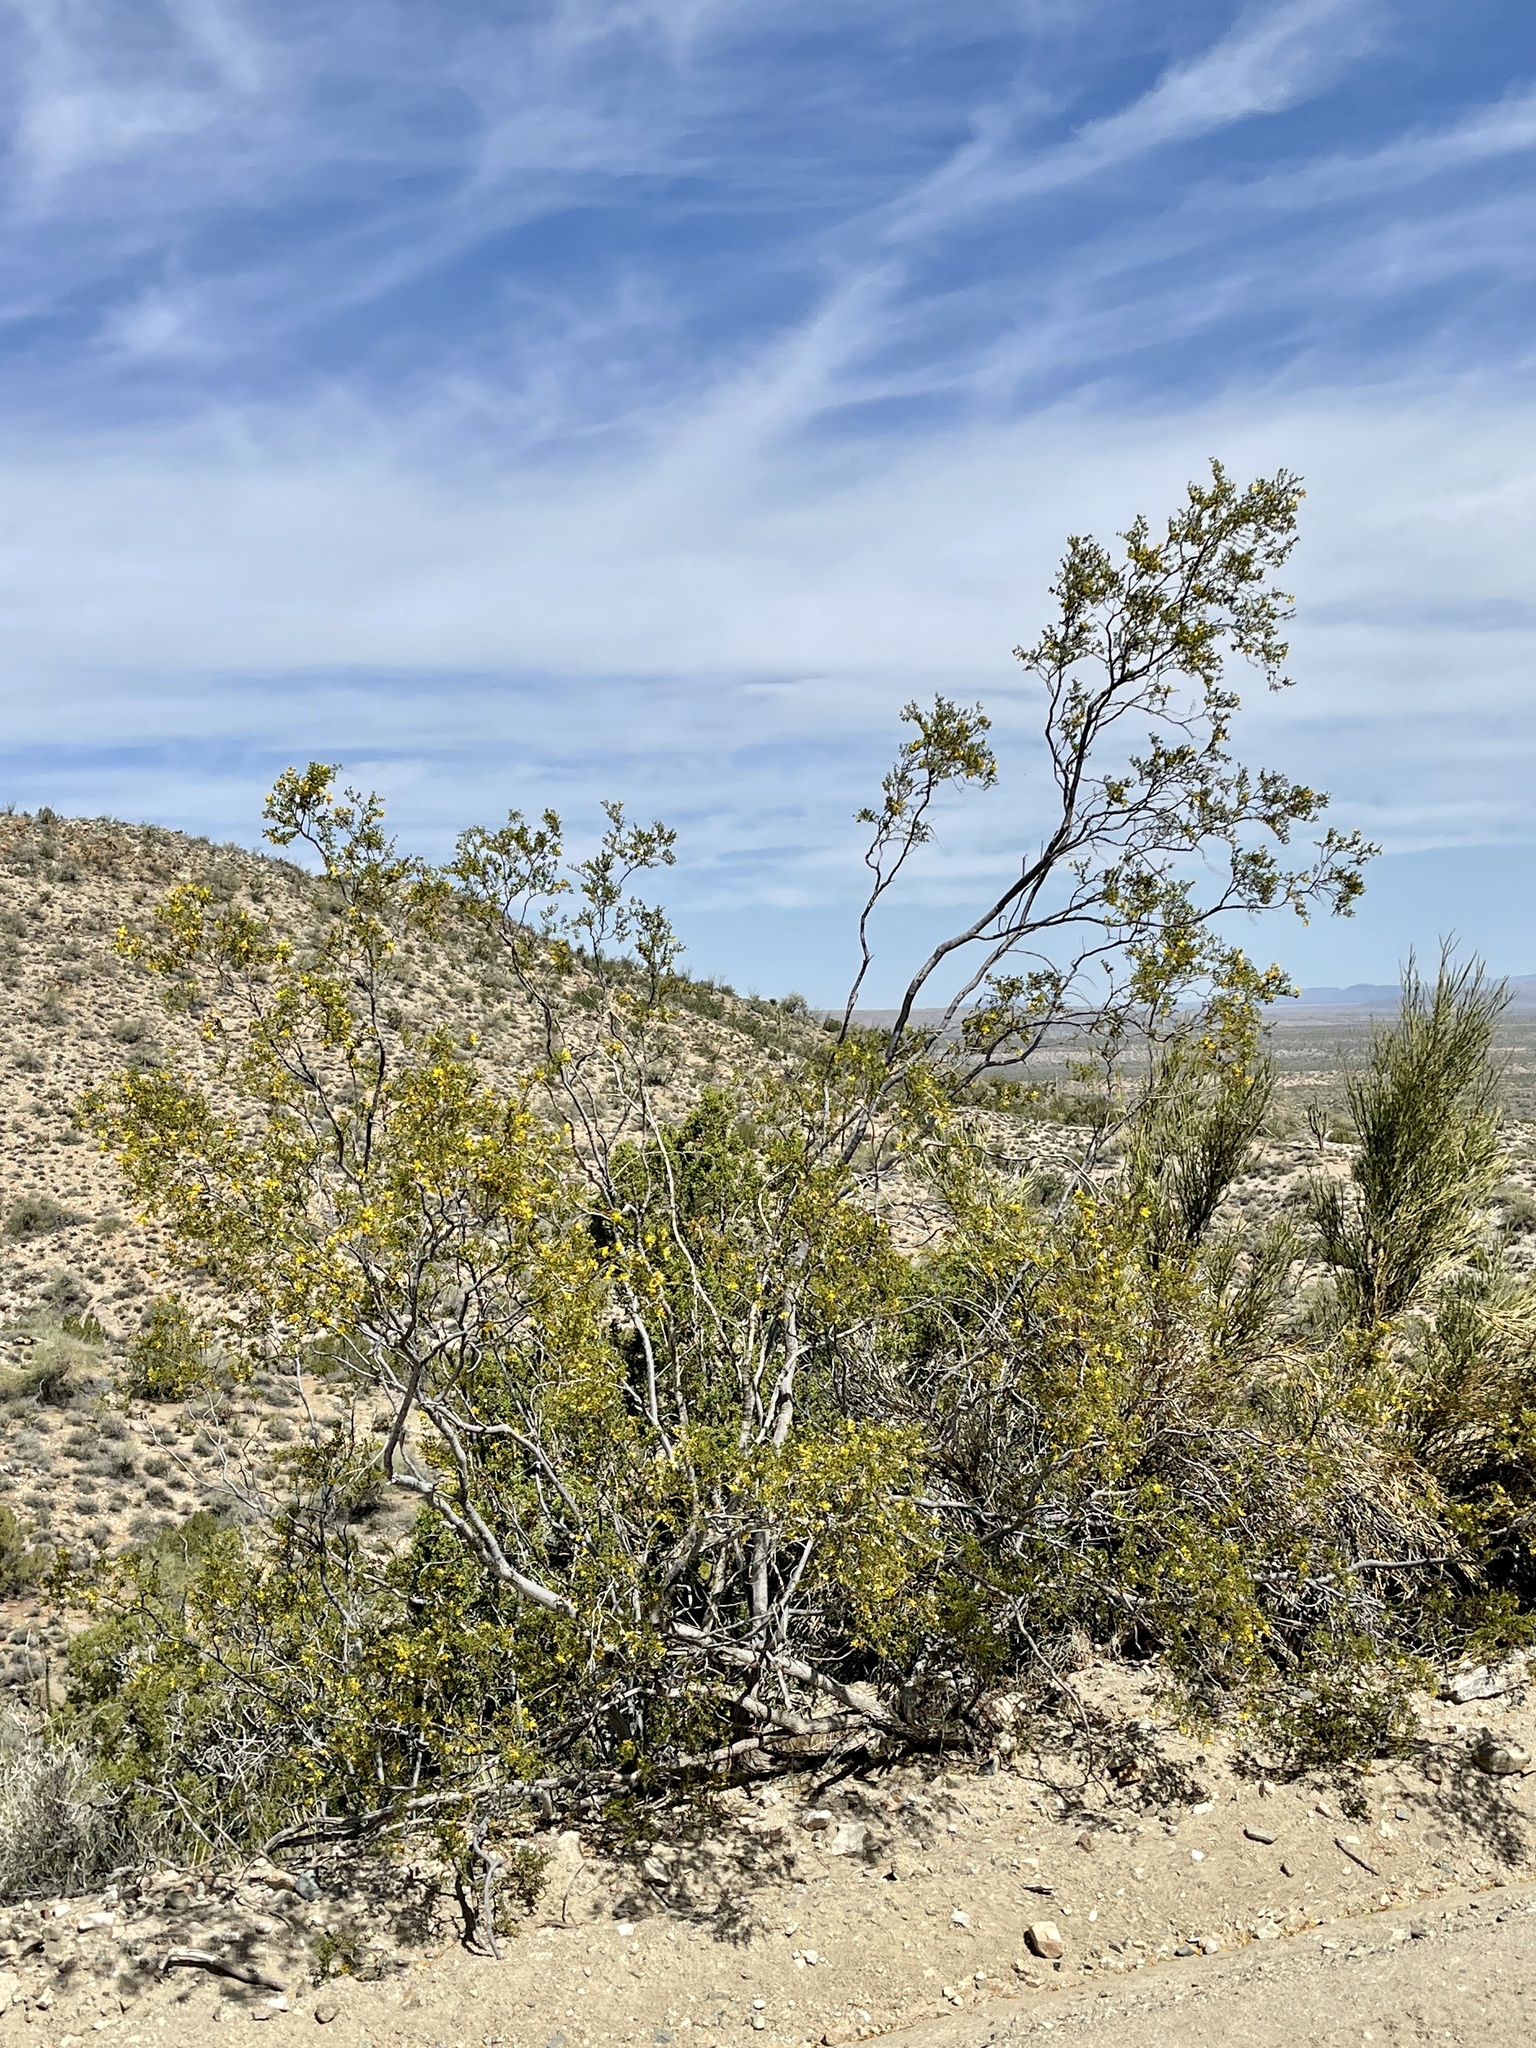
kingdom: Plantae
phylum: Tracheophyta
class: Magnoliopsida
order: Zygophyllales
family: Zygophyllaceae
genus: Larrea
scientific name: Larrea tridentata
